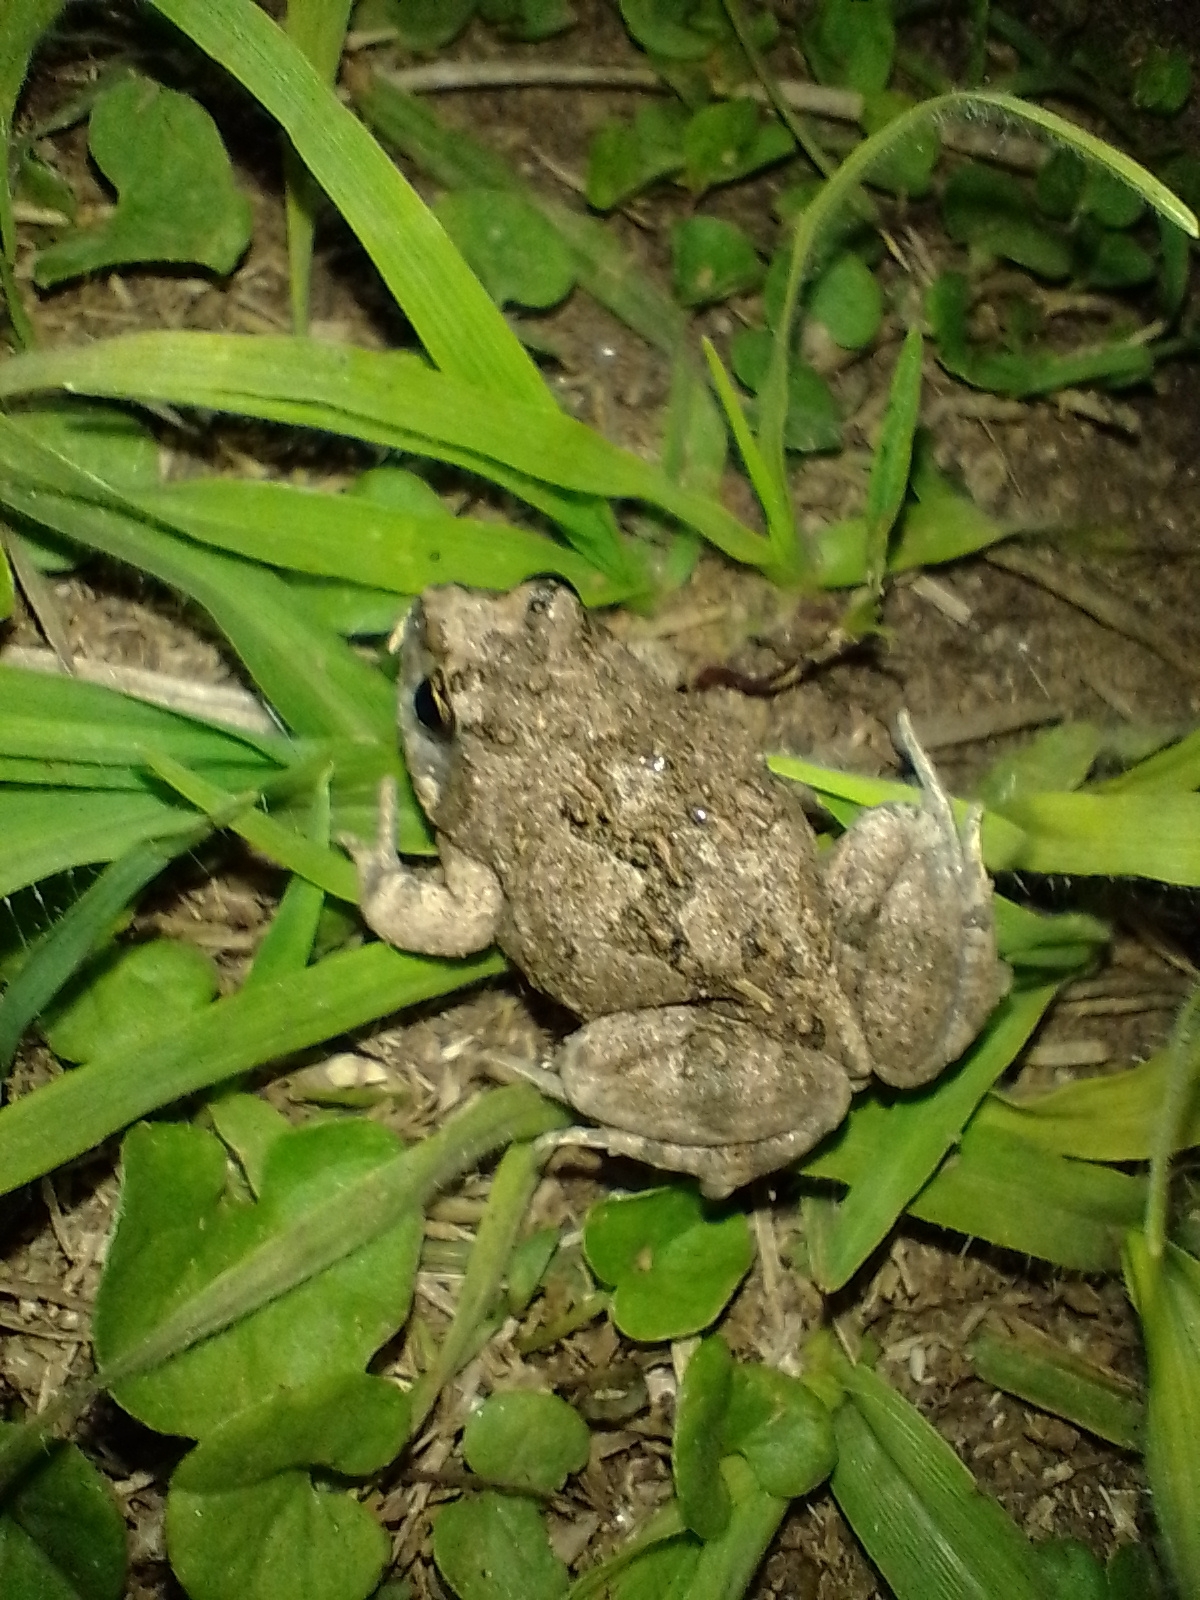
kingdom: Animalia
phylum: Chordata
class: Amphibia
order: Anura
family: Leptodactylidae
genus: Physalaemus
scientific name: Physalaemus biligonigerus
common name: Weeping frog
